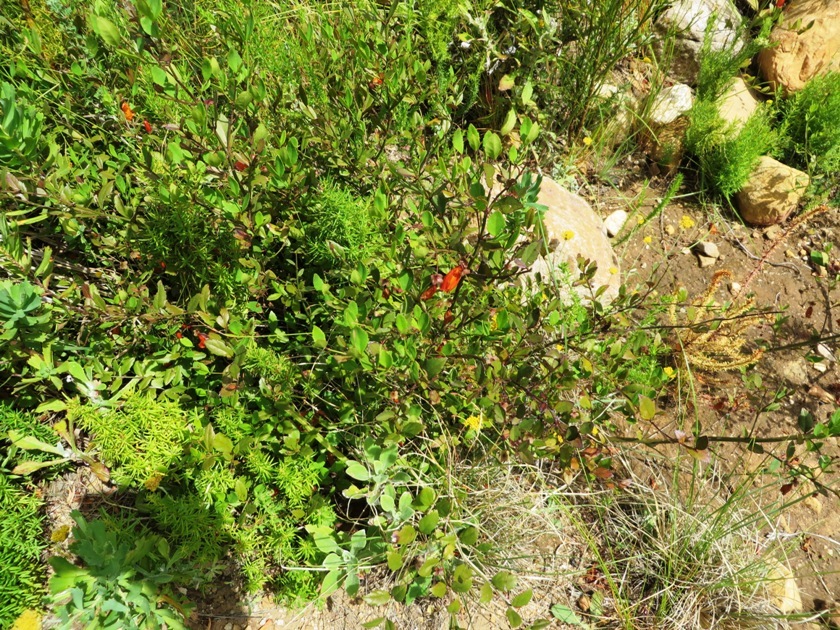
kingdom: Plantae
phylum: Tracheophyta
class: Magnoliopsida
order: Lamiales
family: Stilbaceae
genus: Halleria
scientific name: Halleria elliptica
